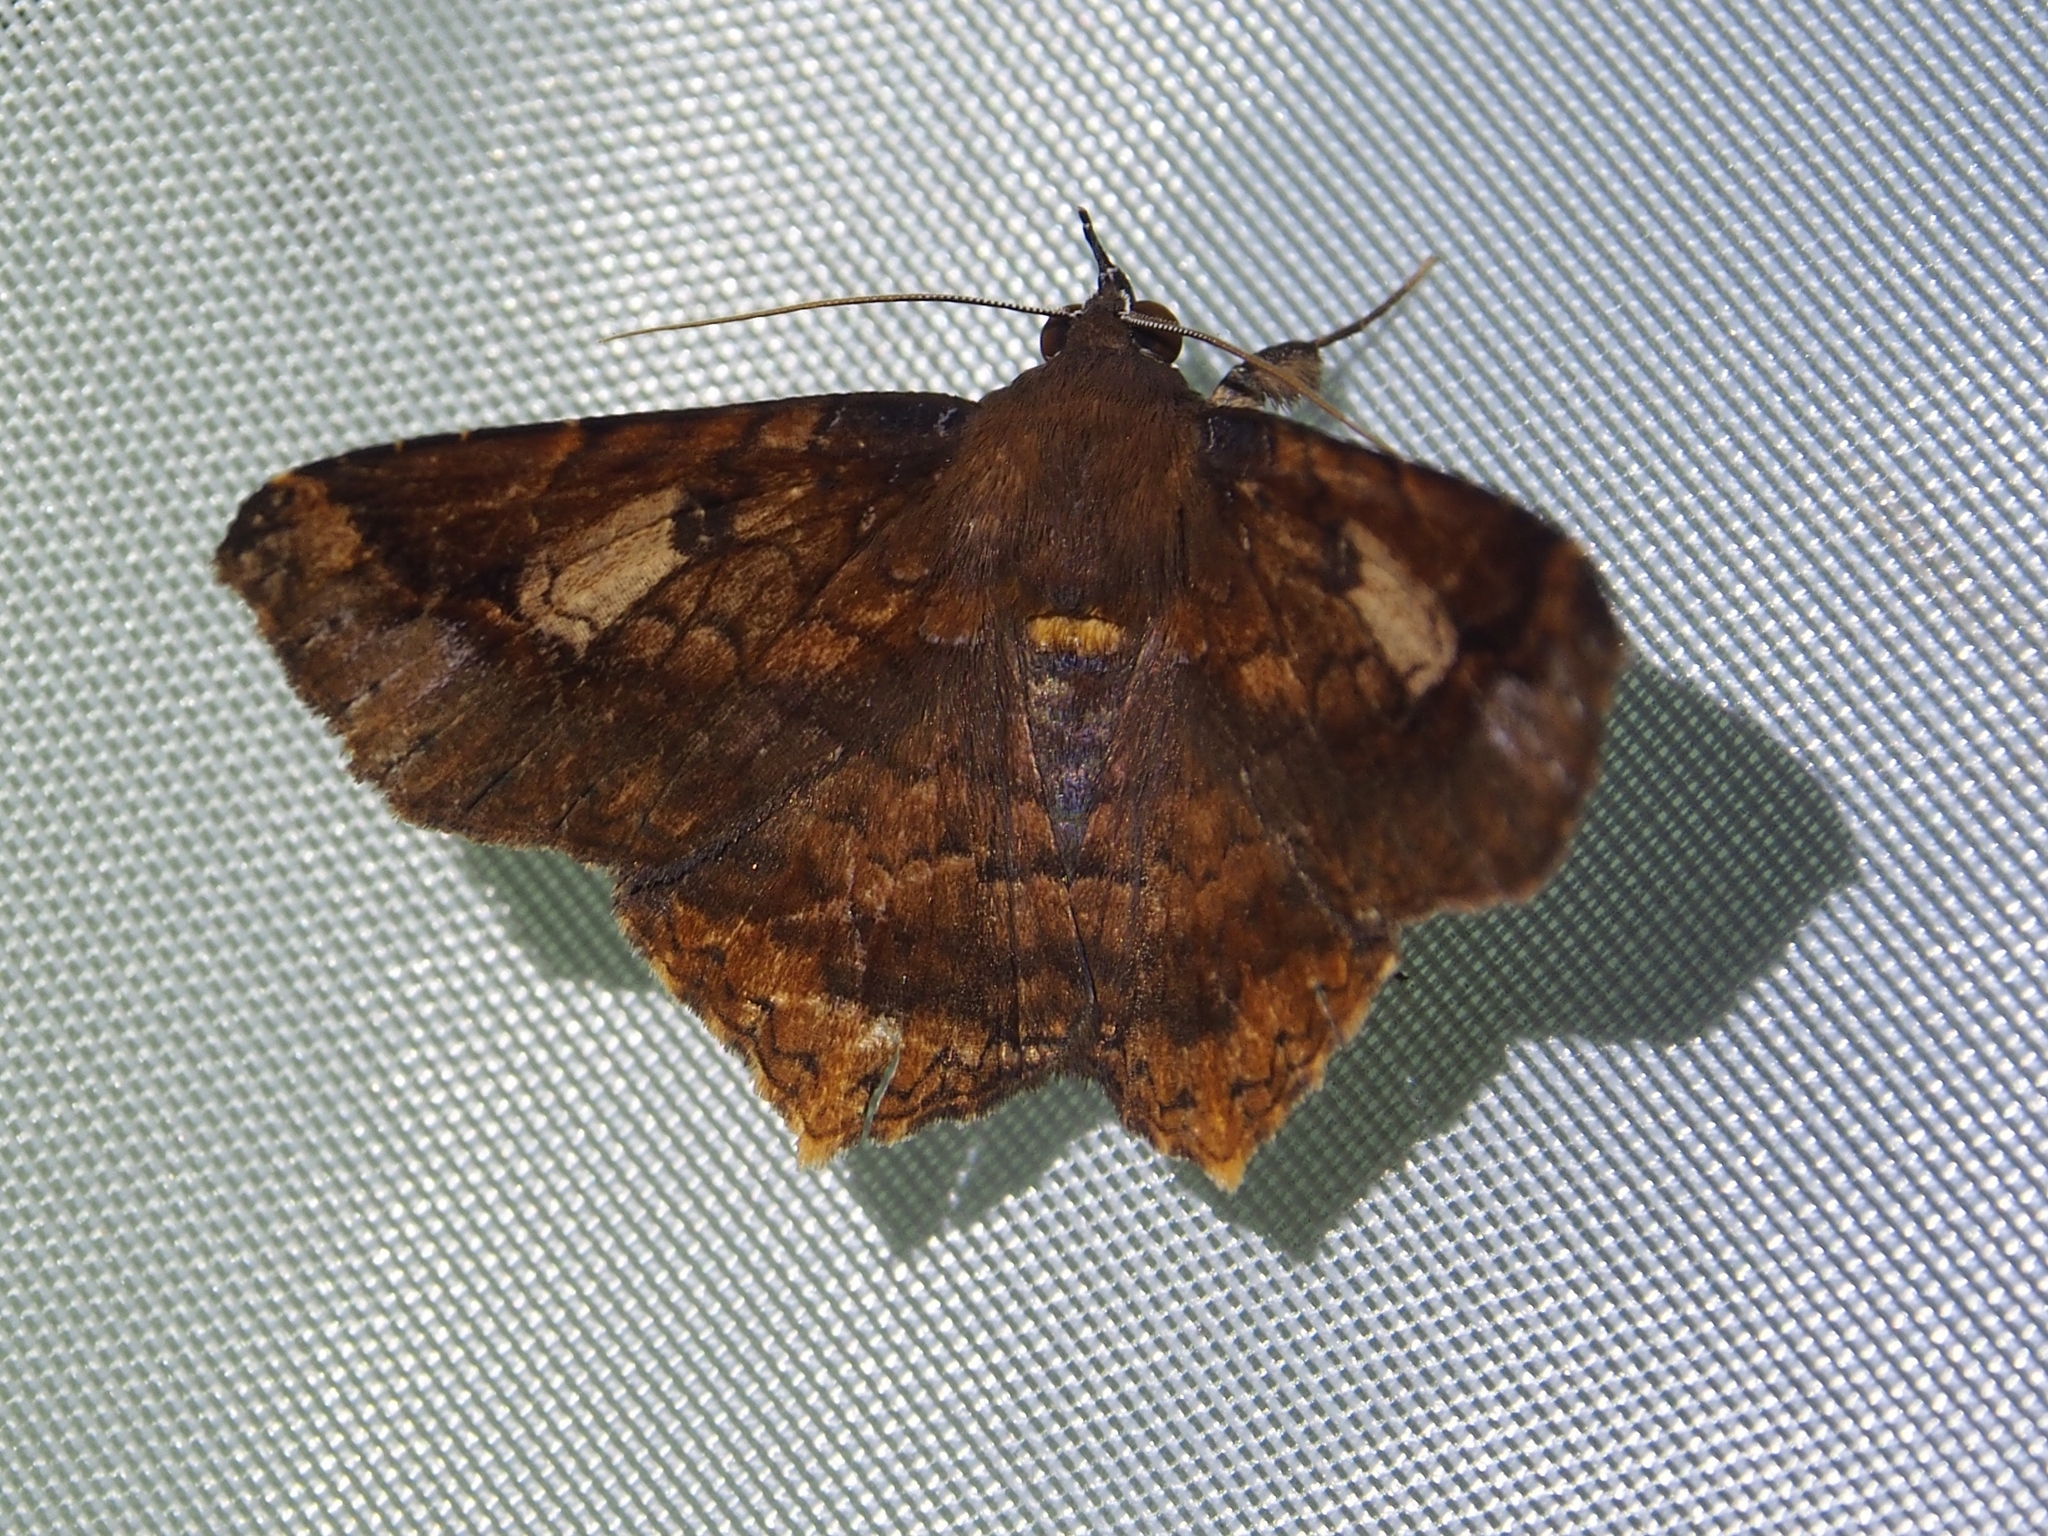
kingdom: Animalia
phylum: Arthropoda
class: Insecta
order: Lepidoptera
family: Erebidae
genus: Euclystis
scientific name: Euclystis proba
